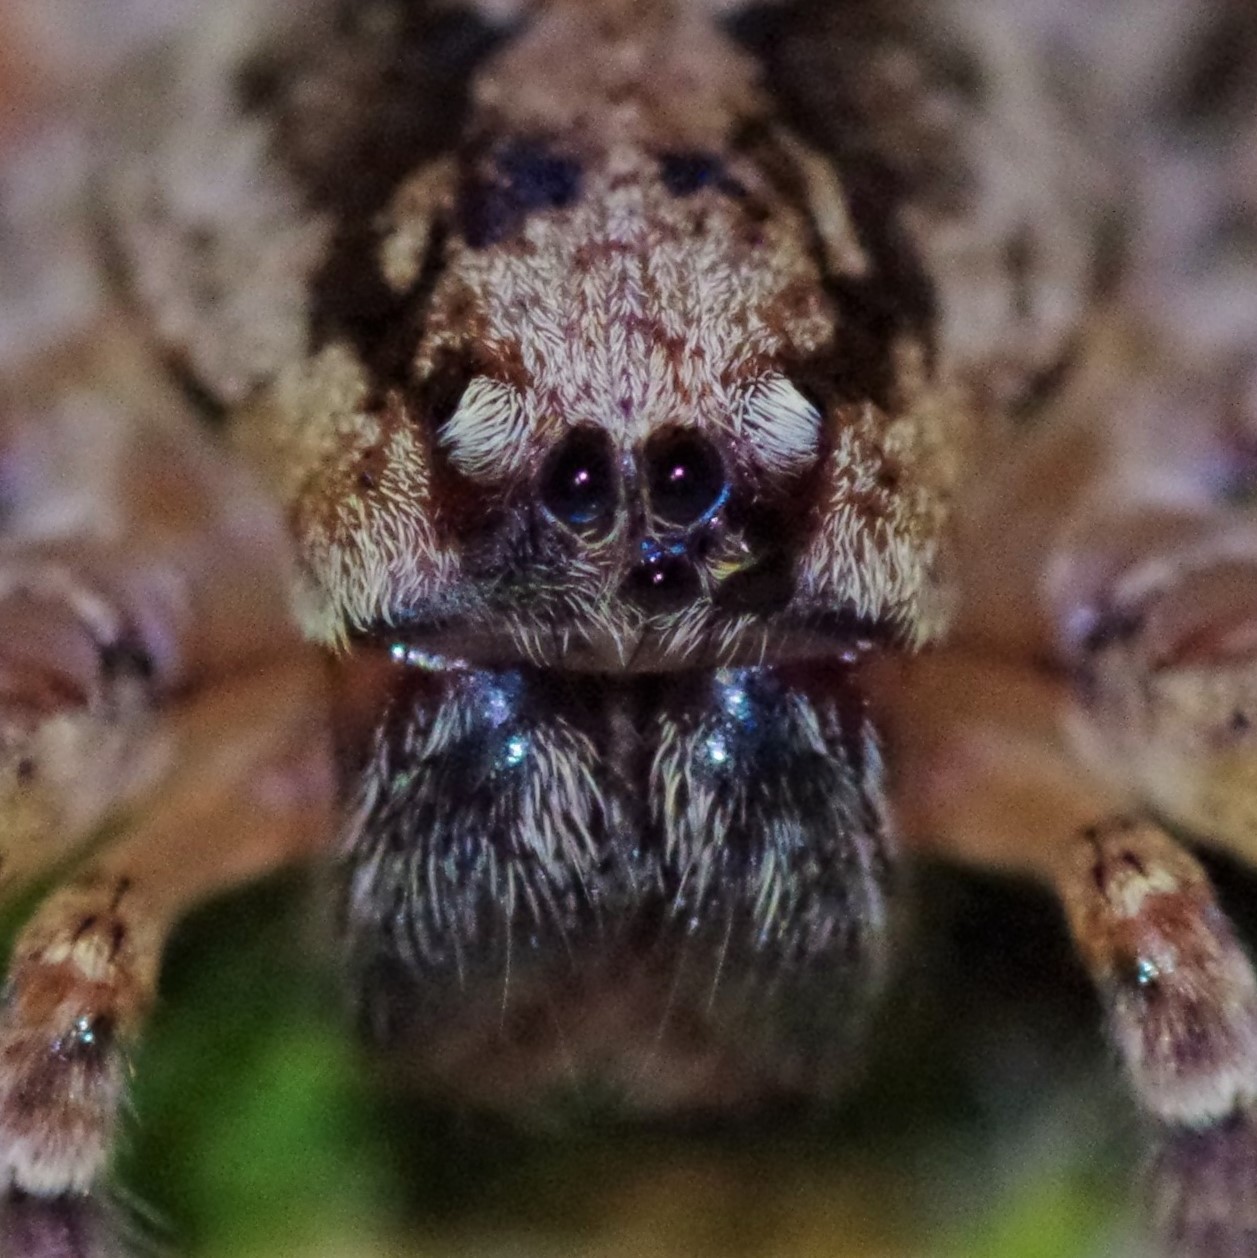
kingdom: Animalia
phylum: Arthropoda
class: Arachnida
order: Araneae
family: Zoropsidae
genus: Zoropsis
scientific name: Zoropsis spinimana
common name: Zoropsid spider
